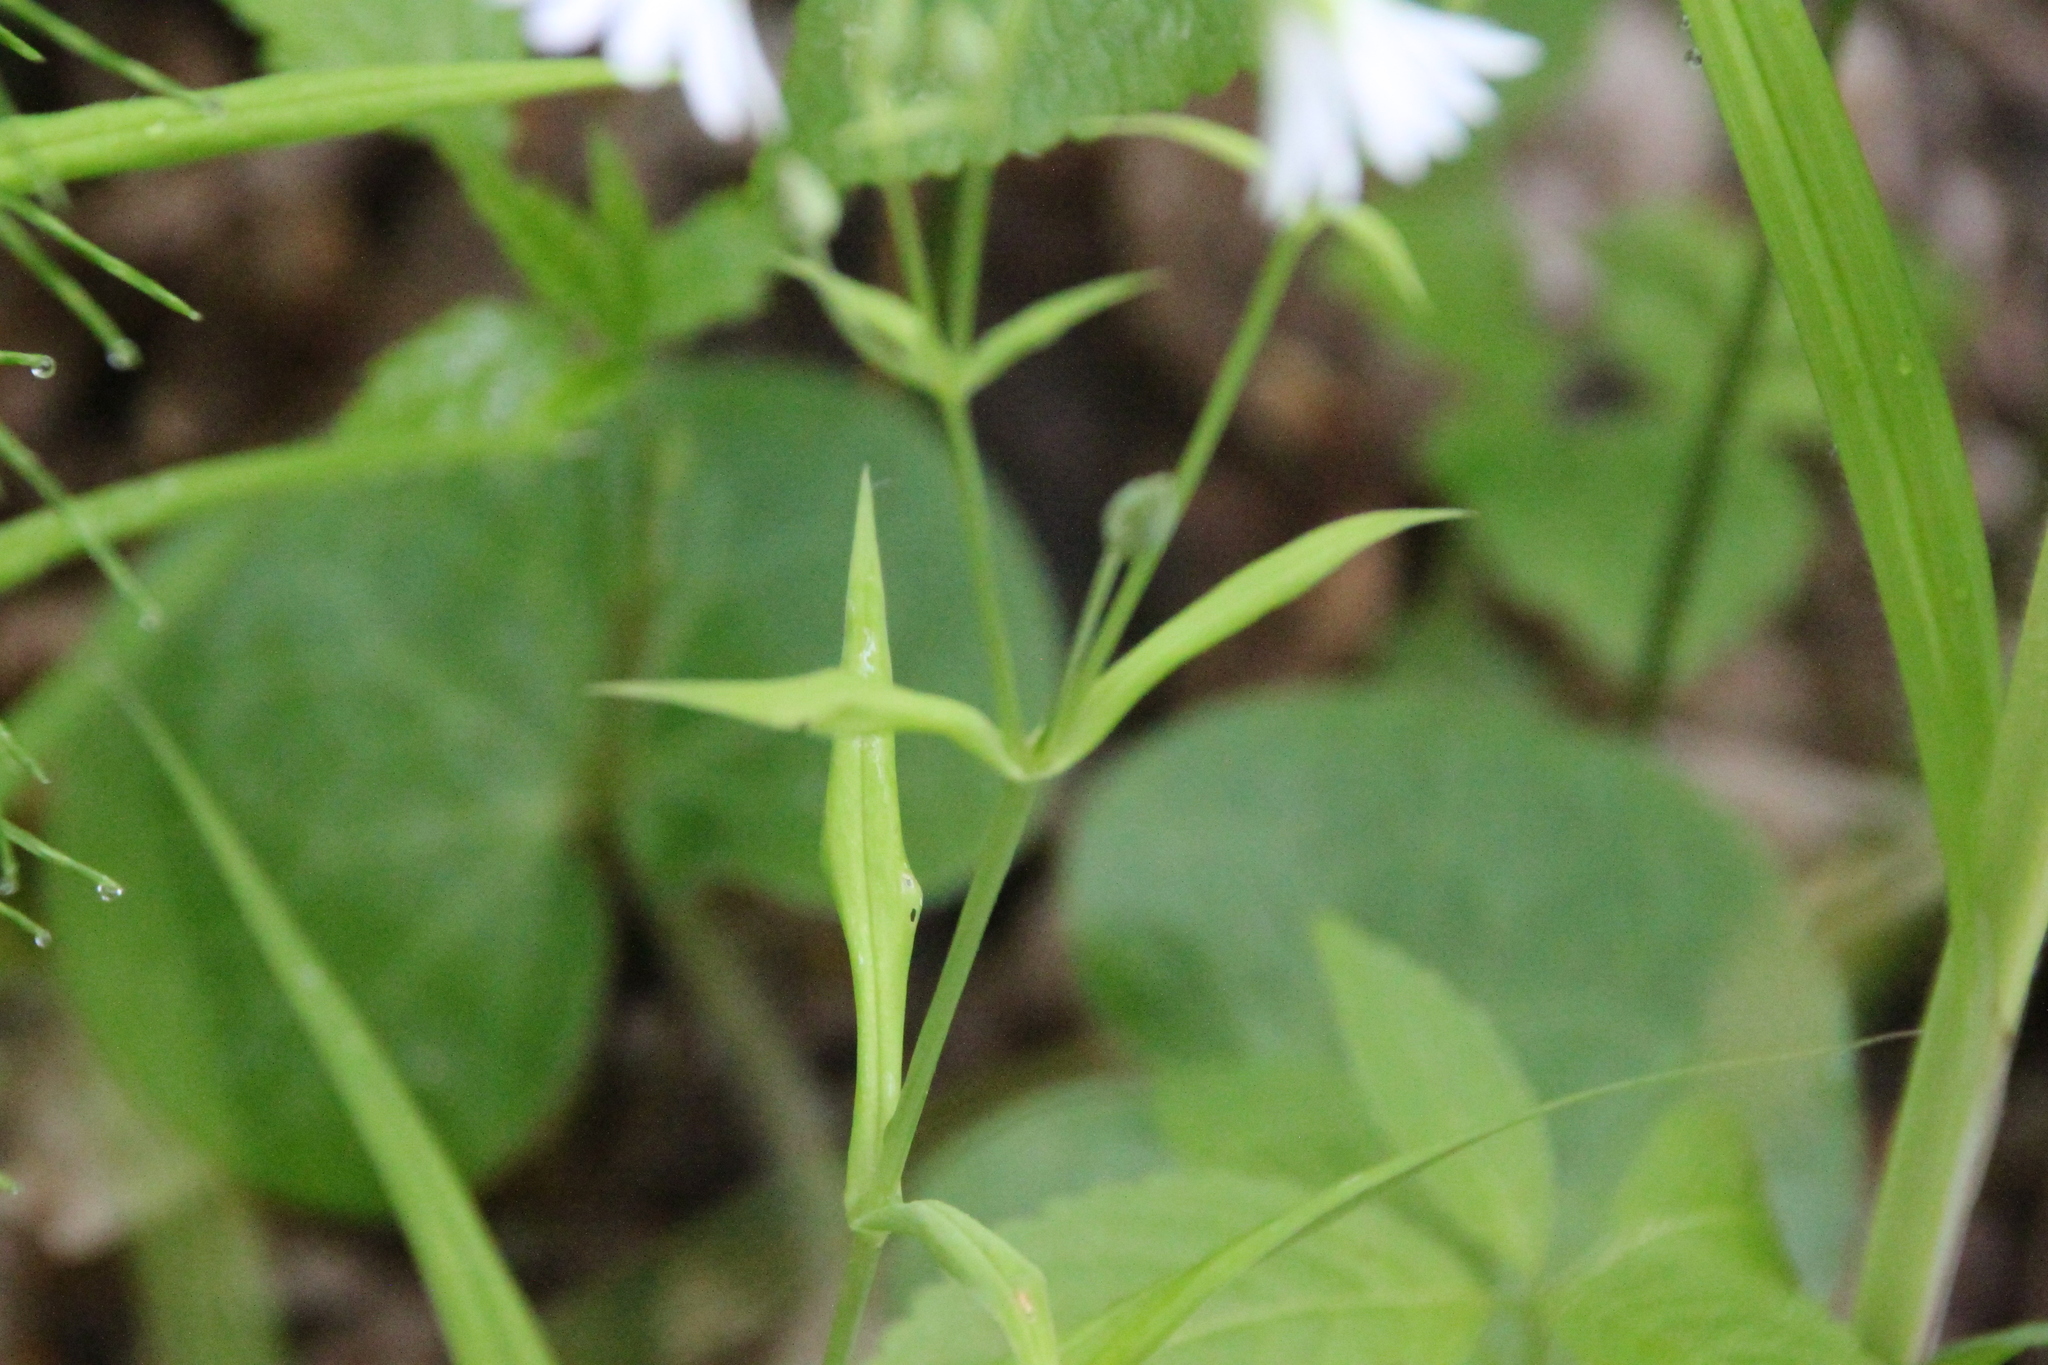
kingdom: Plantae
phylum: Tracheophyta
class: Magnoliopsida
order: Caryophyllales
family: Caryophyllaceae
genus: Rabelera
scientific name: Rabelera holostea
